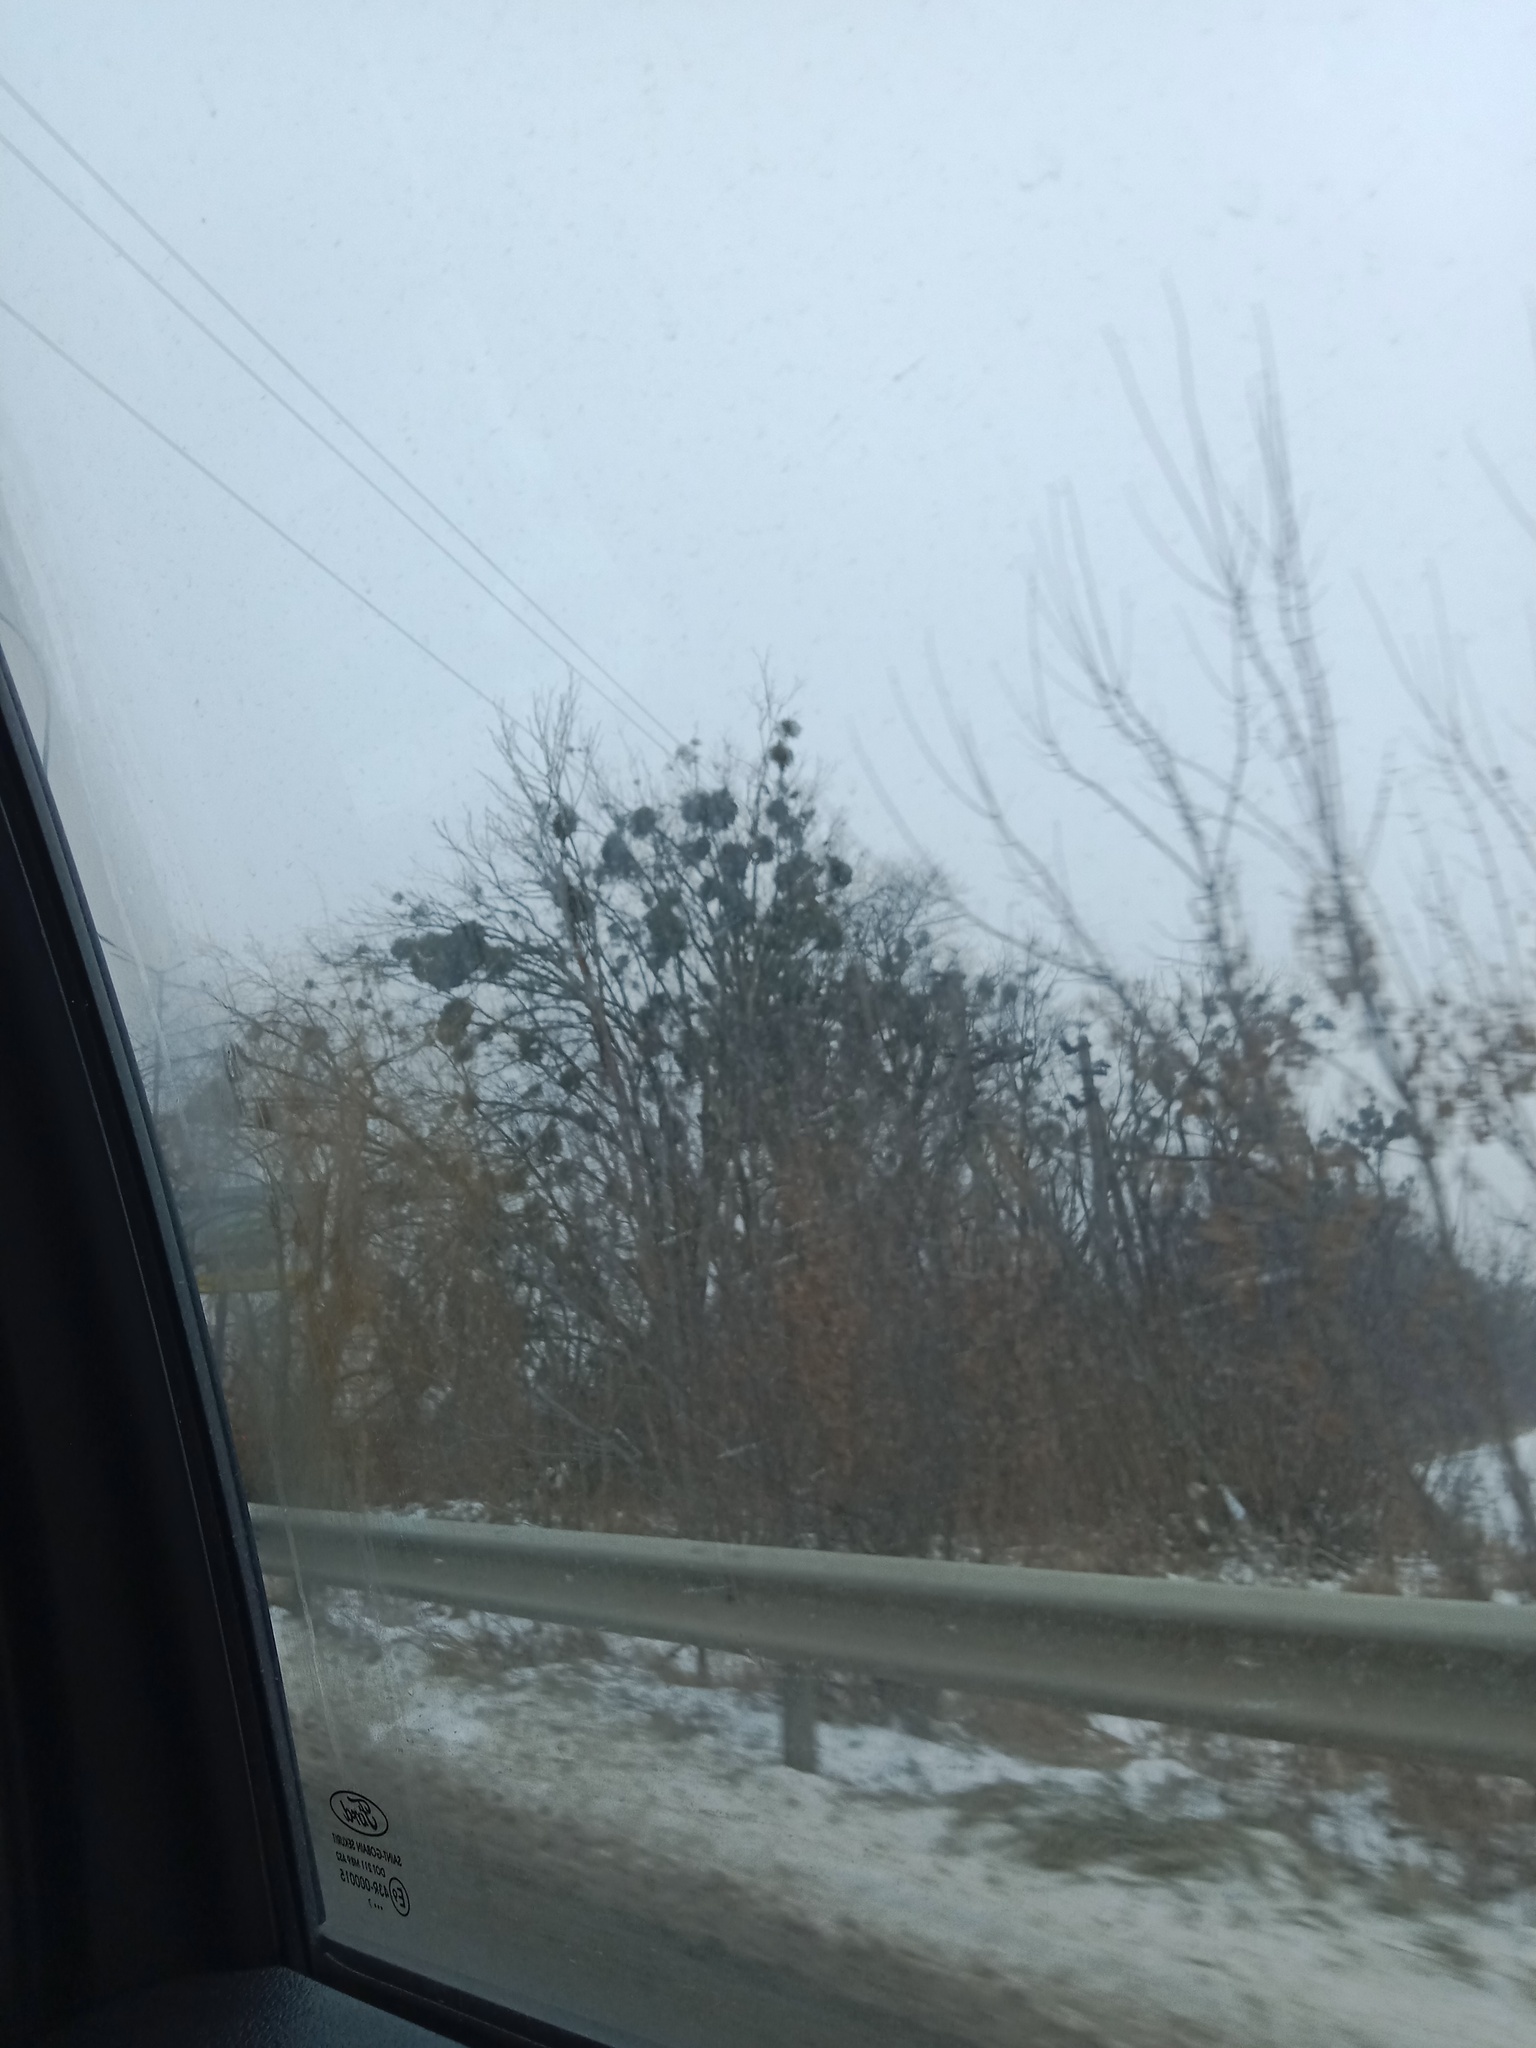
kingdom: Plantae
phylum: Tracheophyta
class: Magnoliopsida
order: Santalales
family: Viscaceae
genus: Viscum
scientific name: Viscum album
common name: Mistletoe
